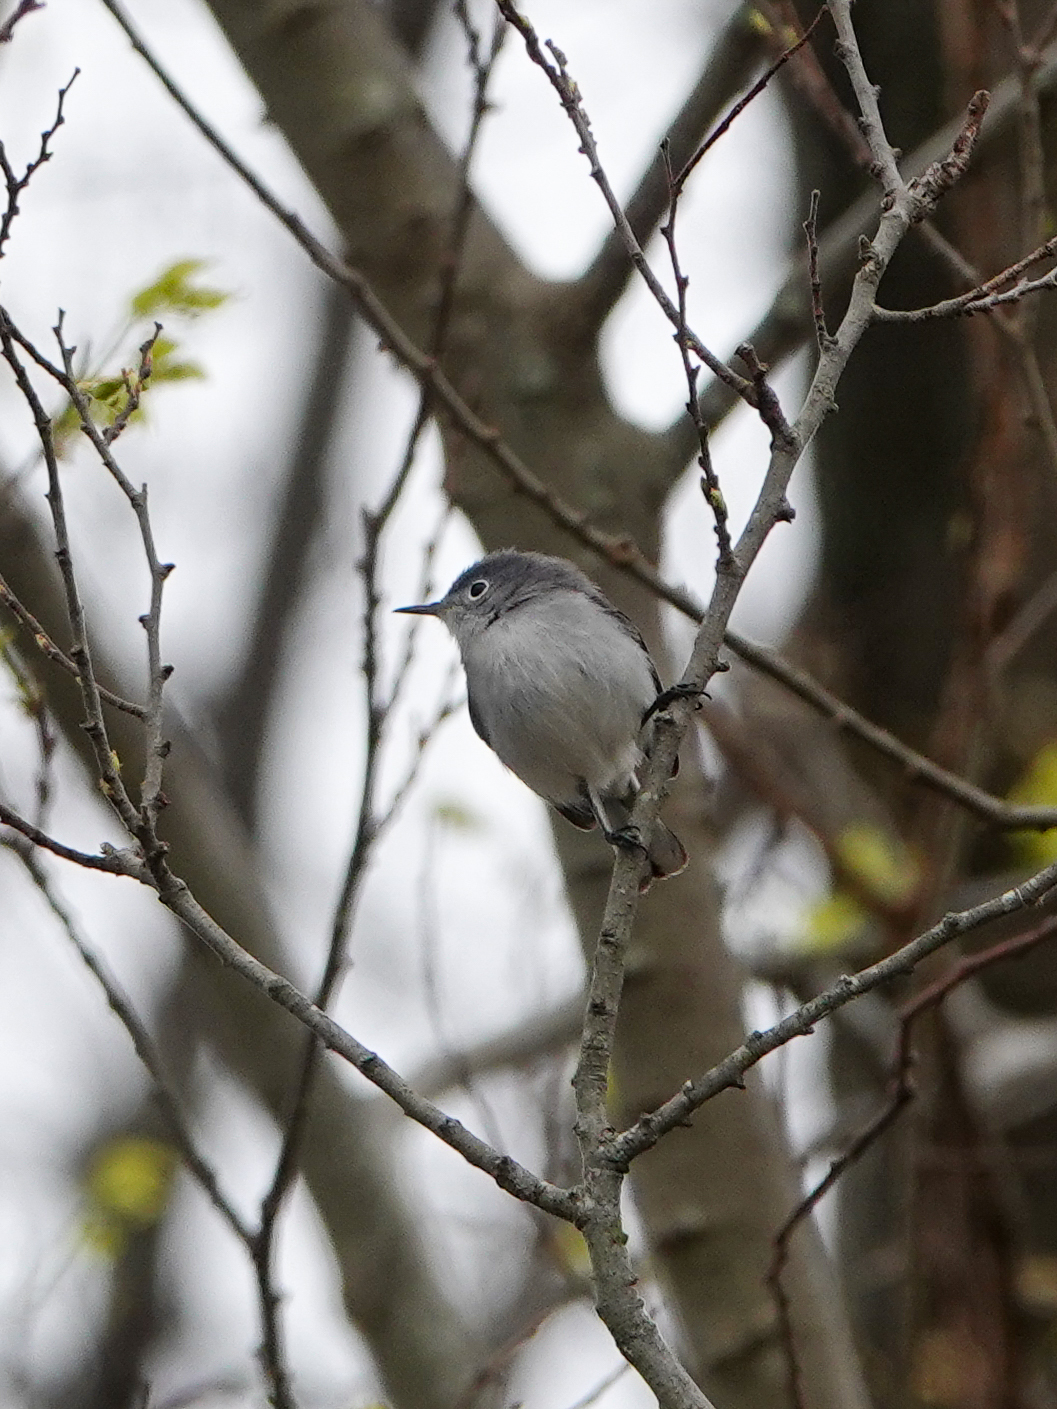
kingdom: Animalia
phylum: Chordata
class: Aves
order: Passeriformes
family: Polioptilidae
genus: Polioptila
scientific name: Polioptila caerulea
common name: Blue-gray gnatcatcher
